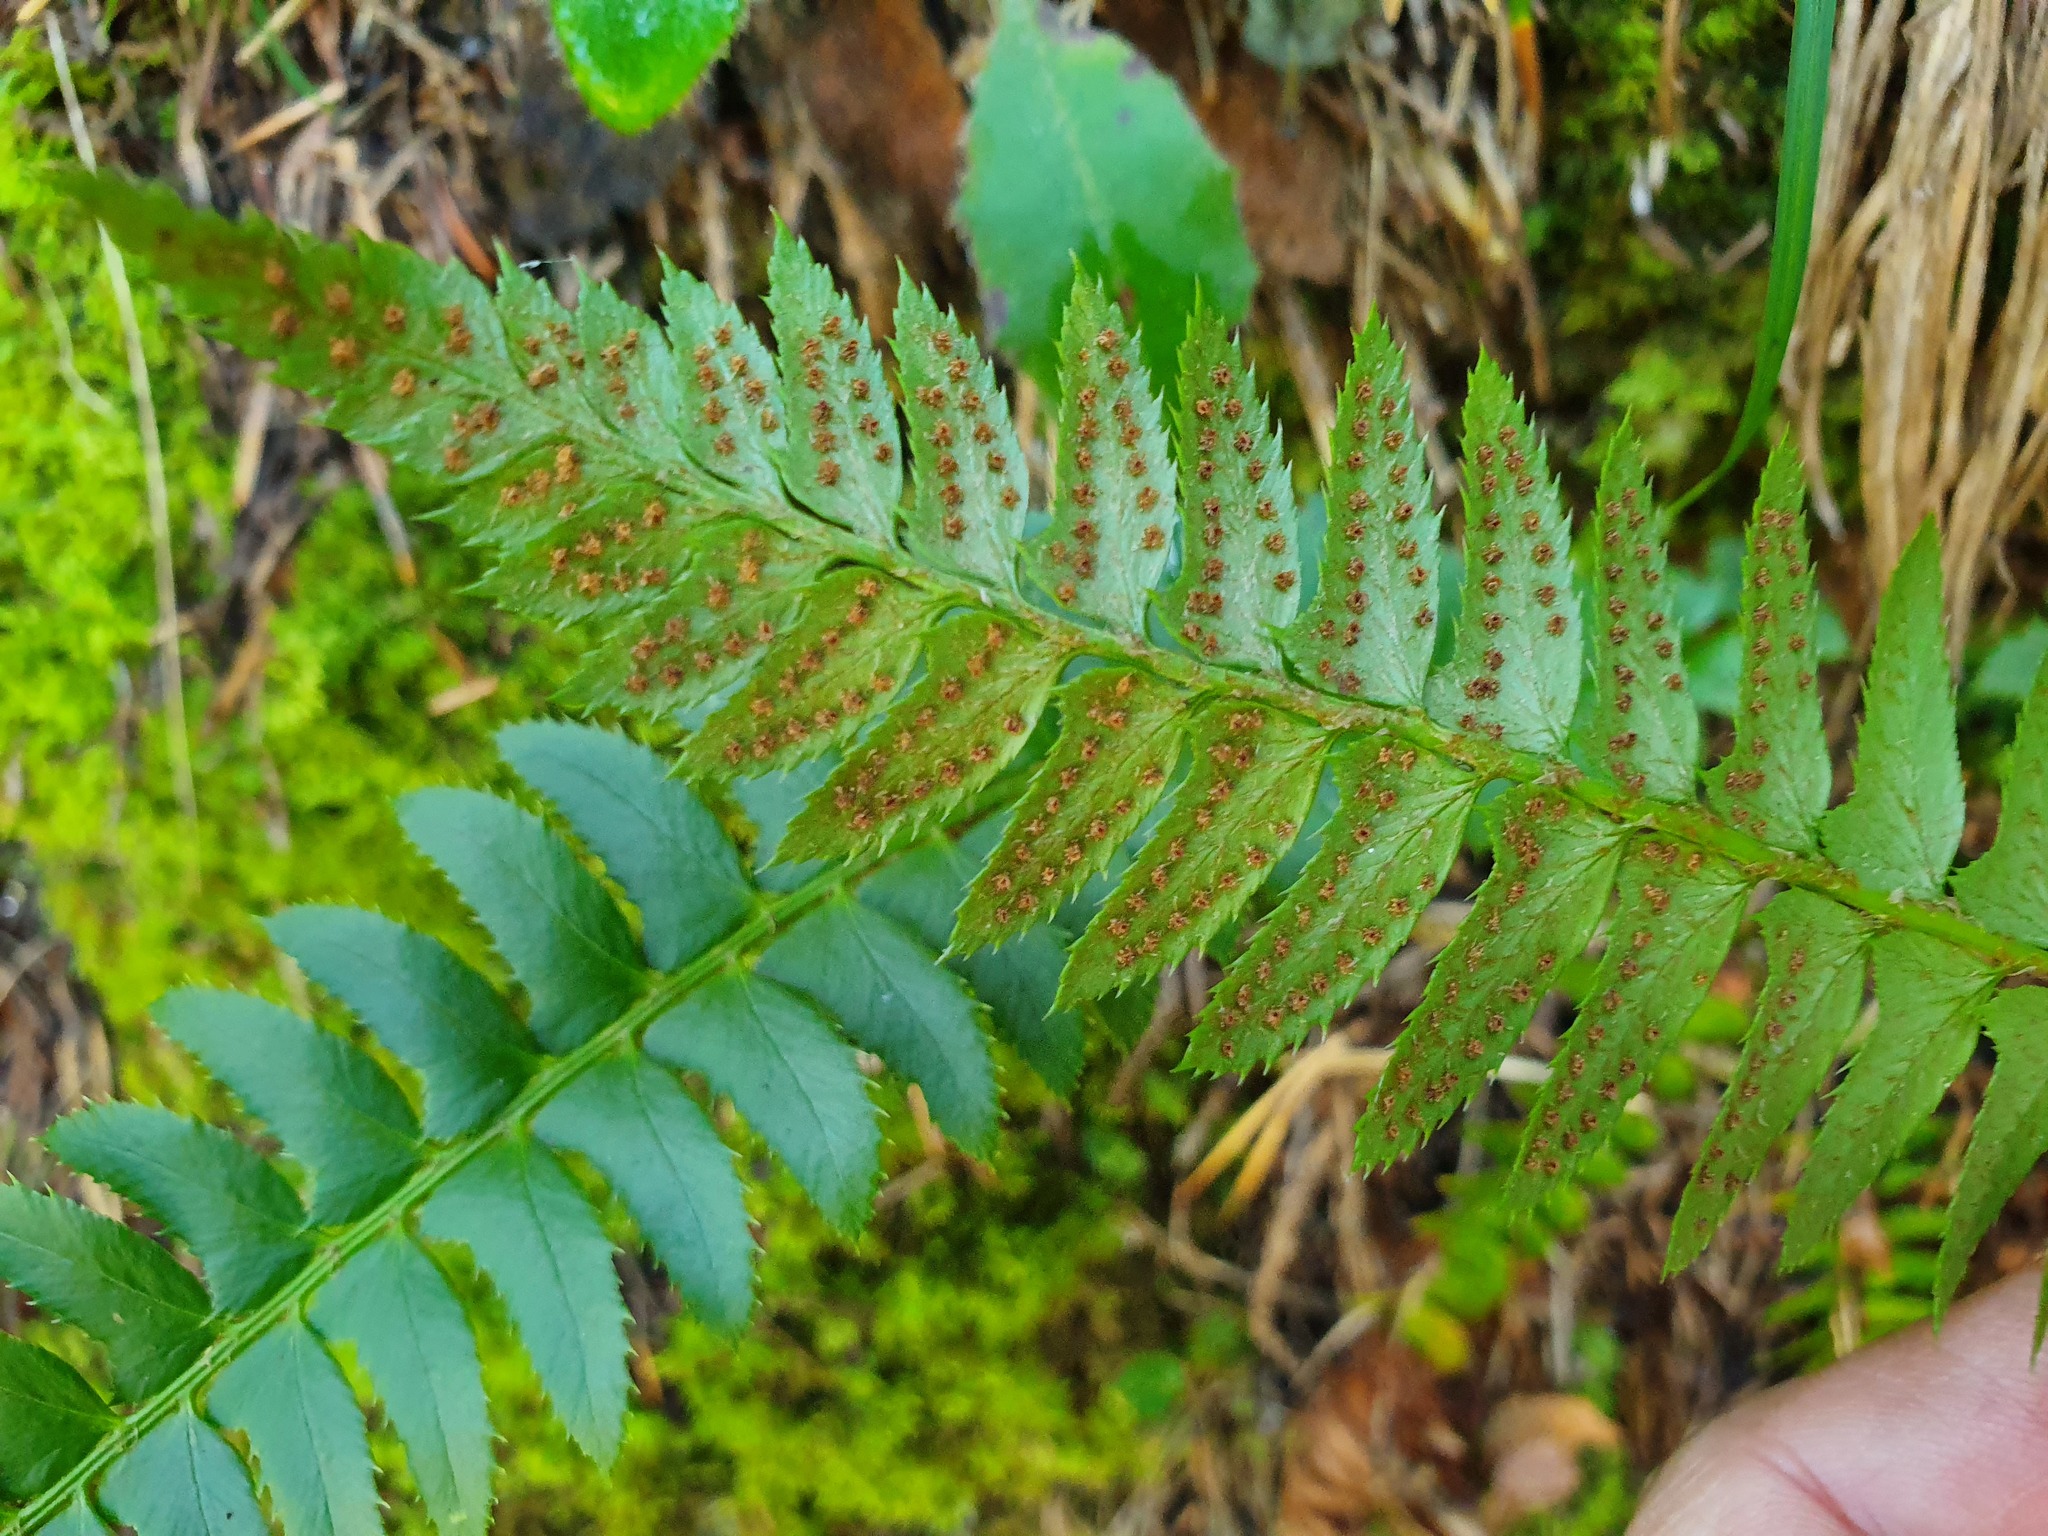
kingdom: Plantae
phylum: Tracheophyta
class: Polypodiopsida
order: Polypodiales
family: Dryopteridaceae
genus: Polystichum
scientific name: Polystichum lonchitis
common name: Holly fern
